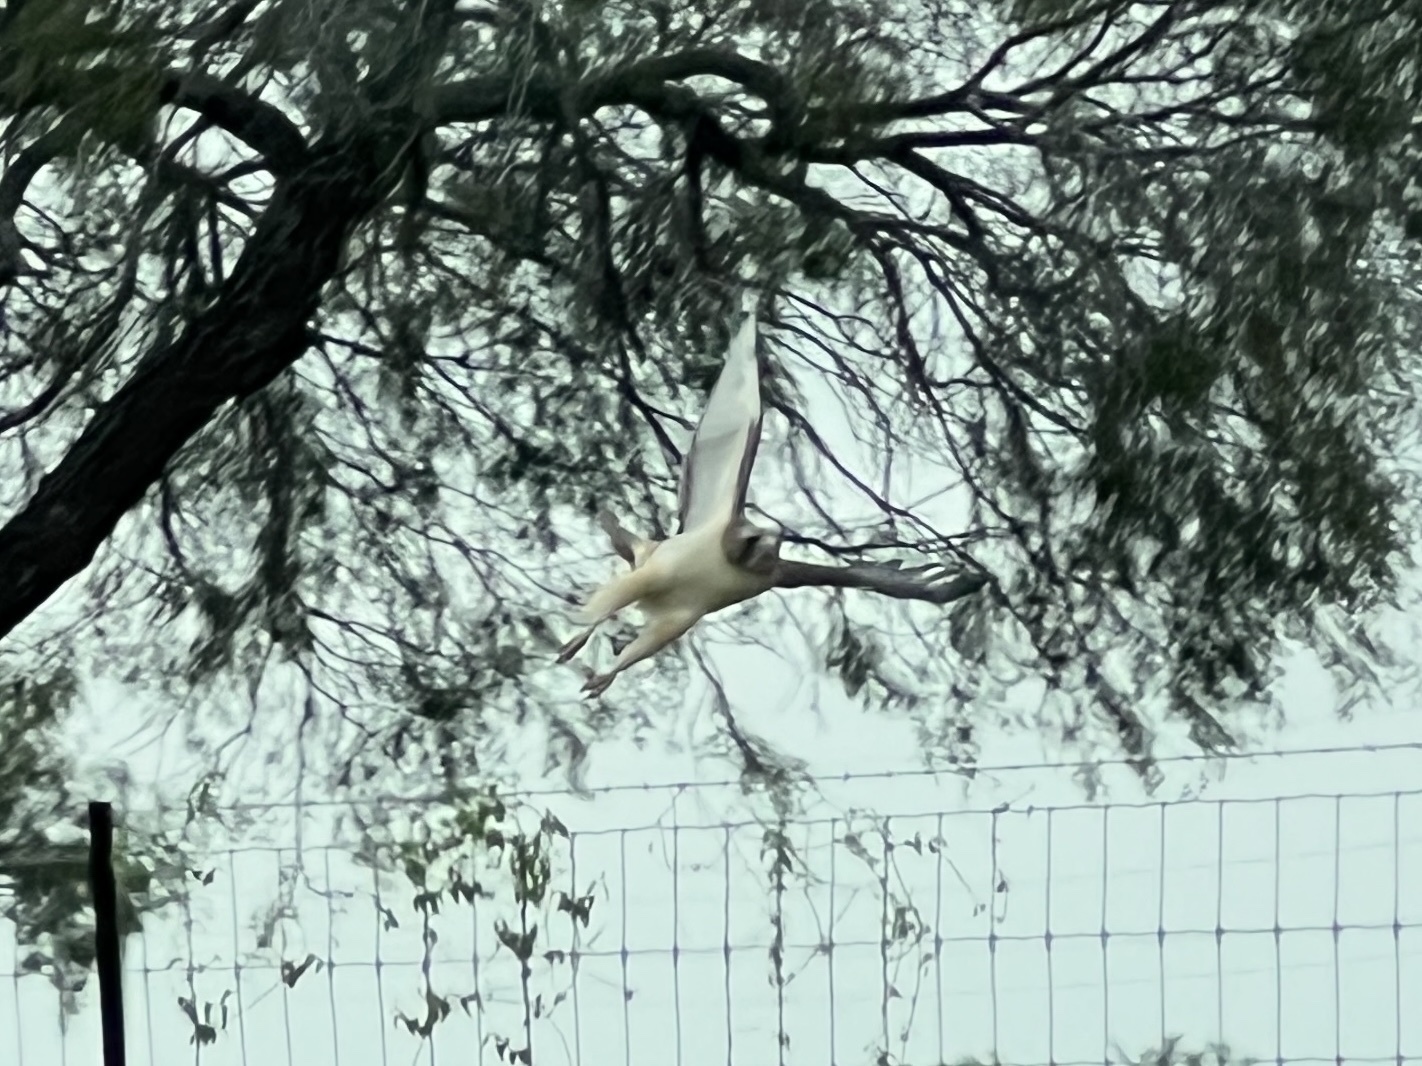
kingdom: Animalia
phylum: Chordata
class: Aves
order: Accipitriformes
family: Accipitridae
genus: Buteo
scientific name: Buteo jamaicensis
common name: Red-tailed hawk
